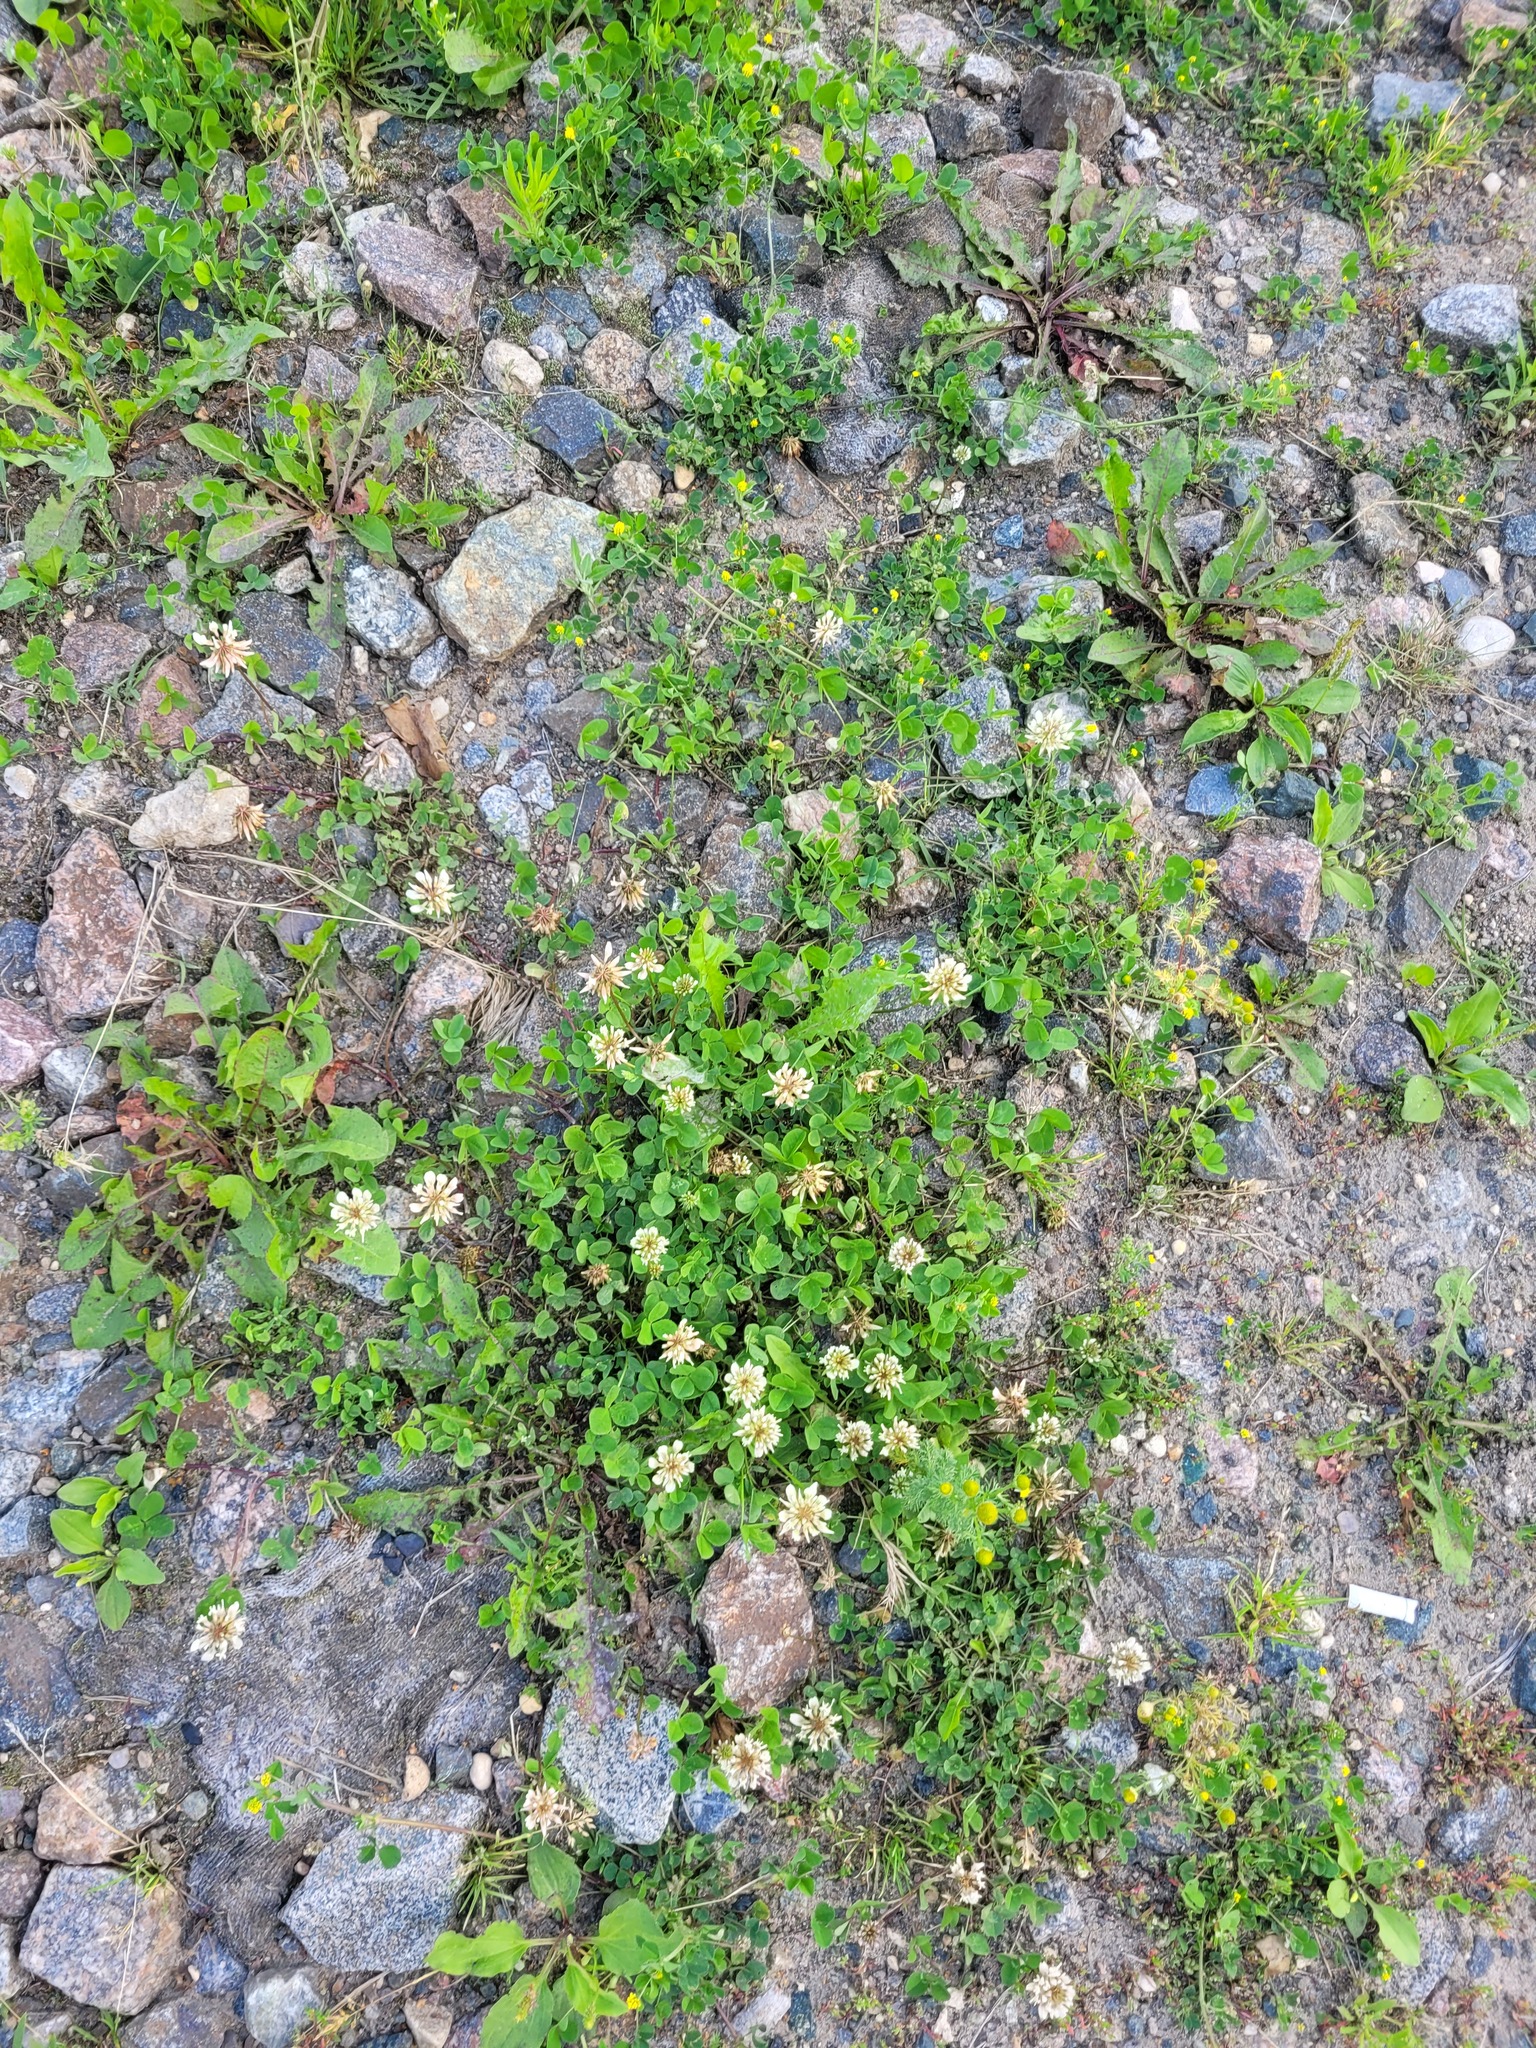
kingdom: Plantae
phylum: Tracheophyta
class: Magnoliopsida
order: Fabales
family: Fabaceae
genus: Trifolium
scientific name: Trifolium repens
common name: White clover
